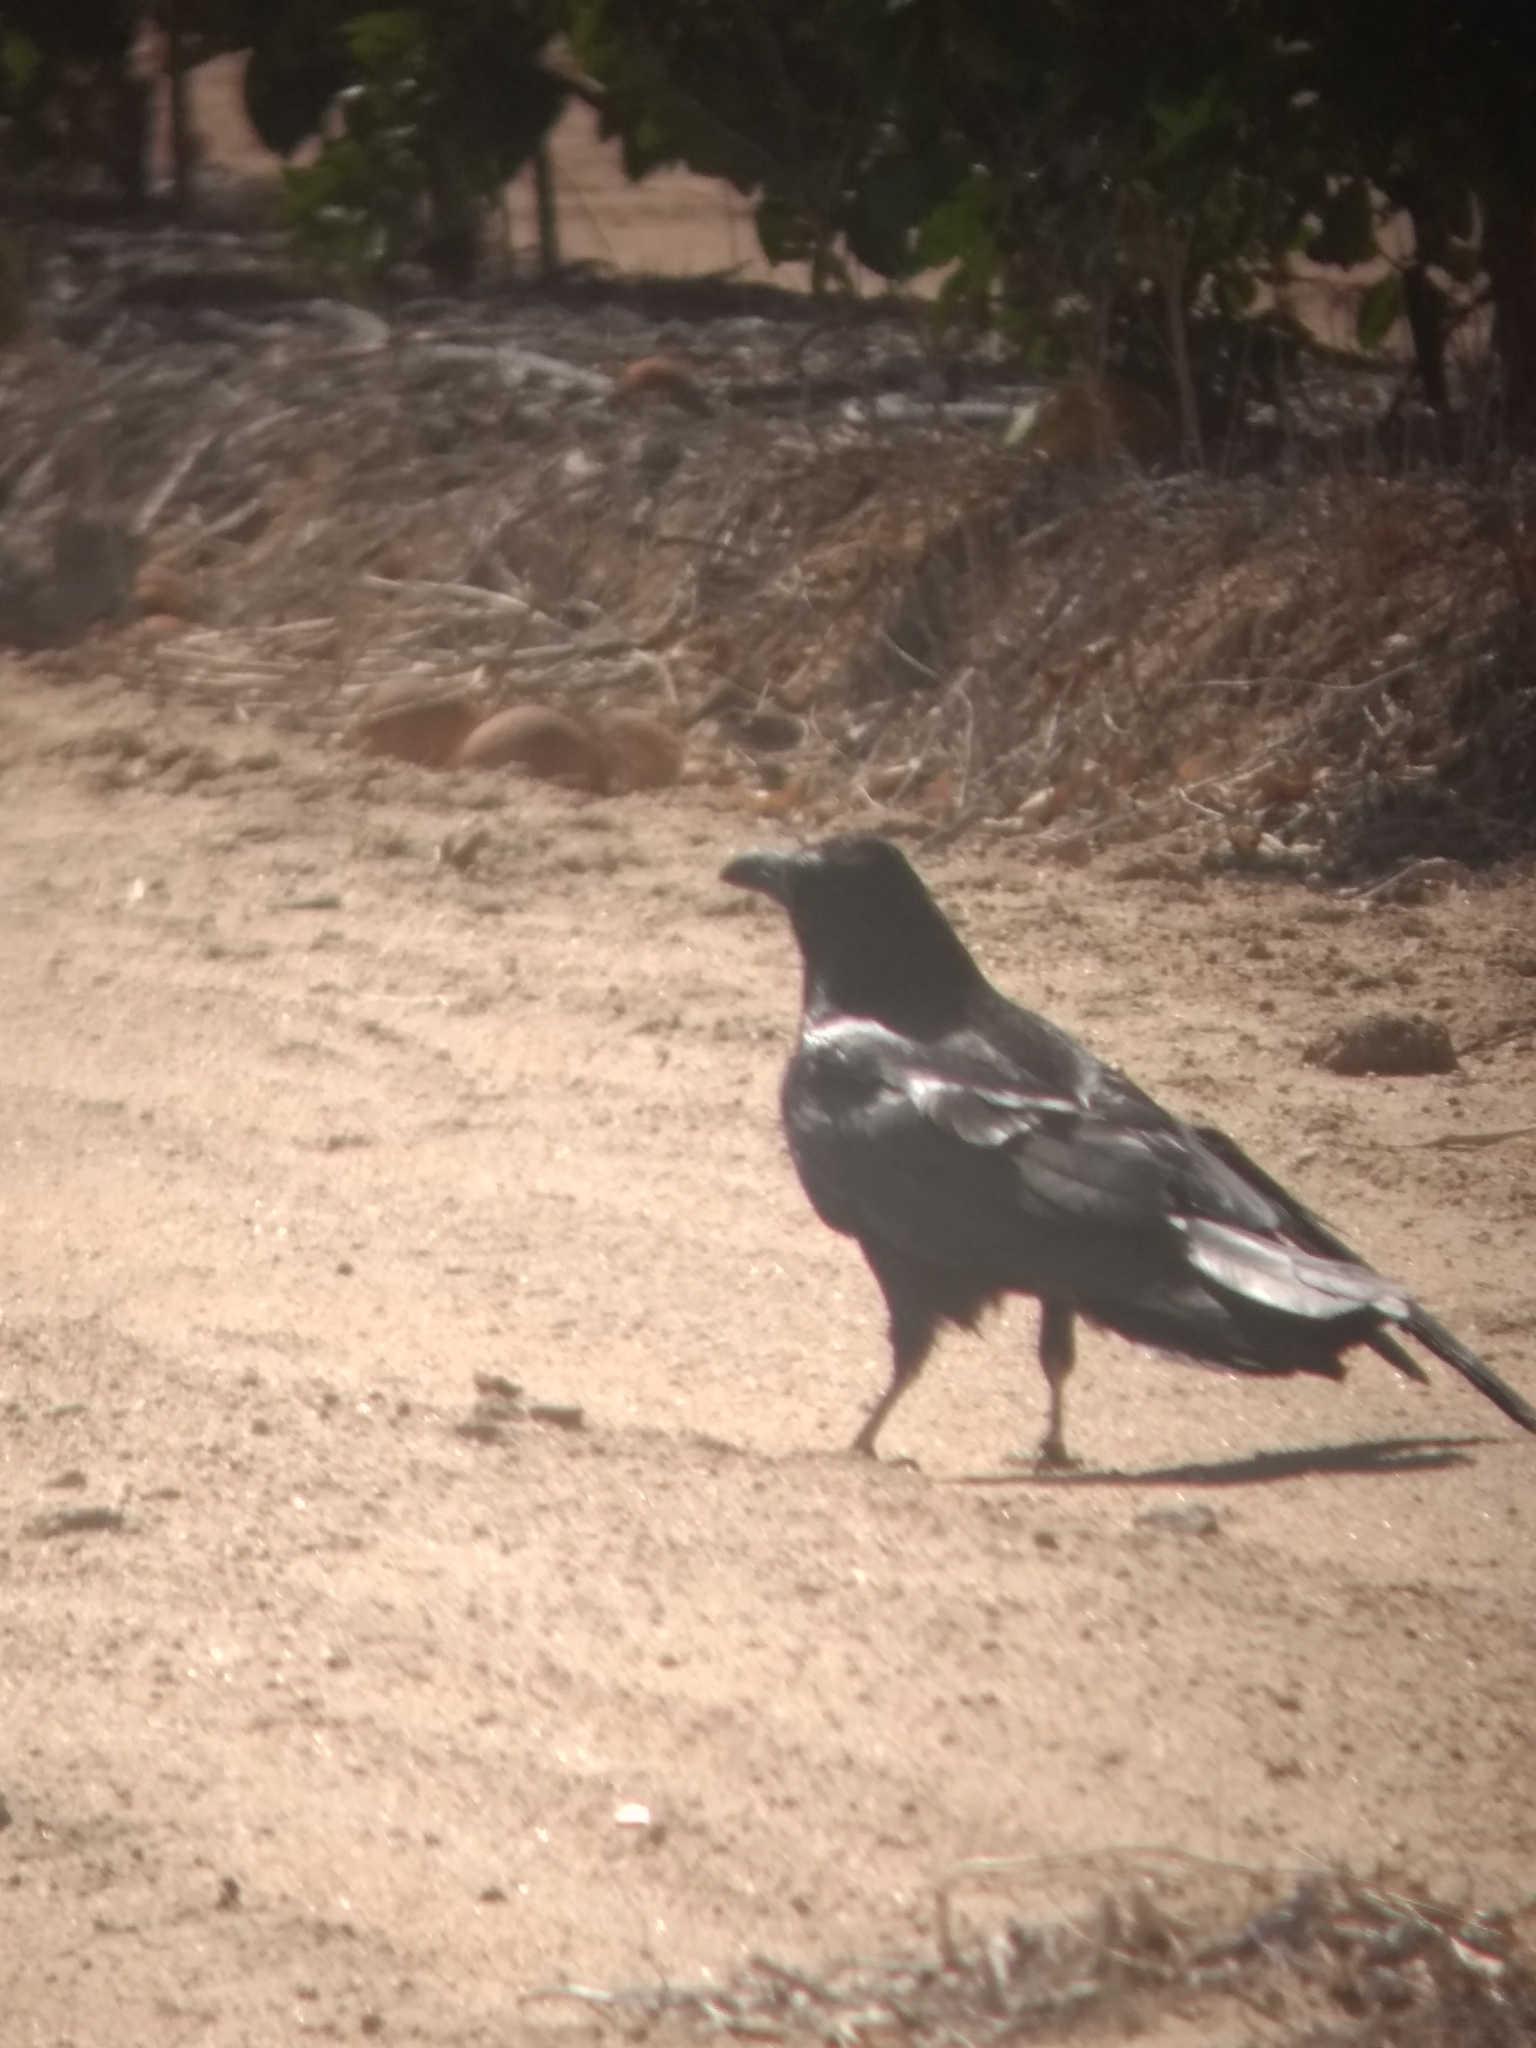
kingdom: Animalia
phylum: Chordata
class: Aves
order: Passeriformes
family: Corvidae
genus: Corvus
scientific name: Corvus corax
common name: Common raven
